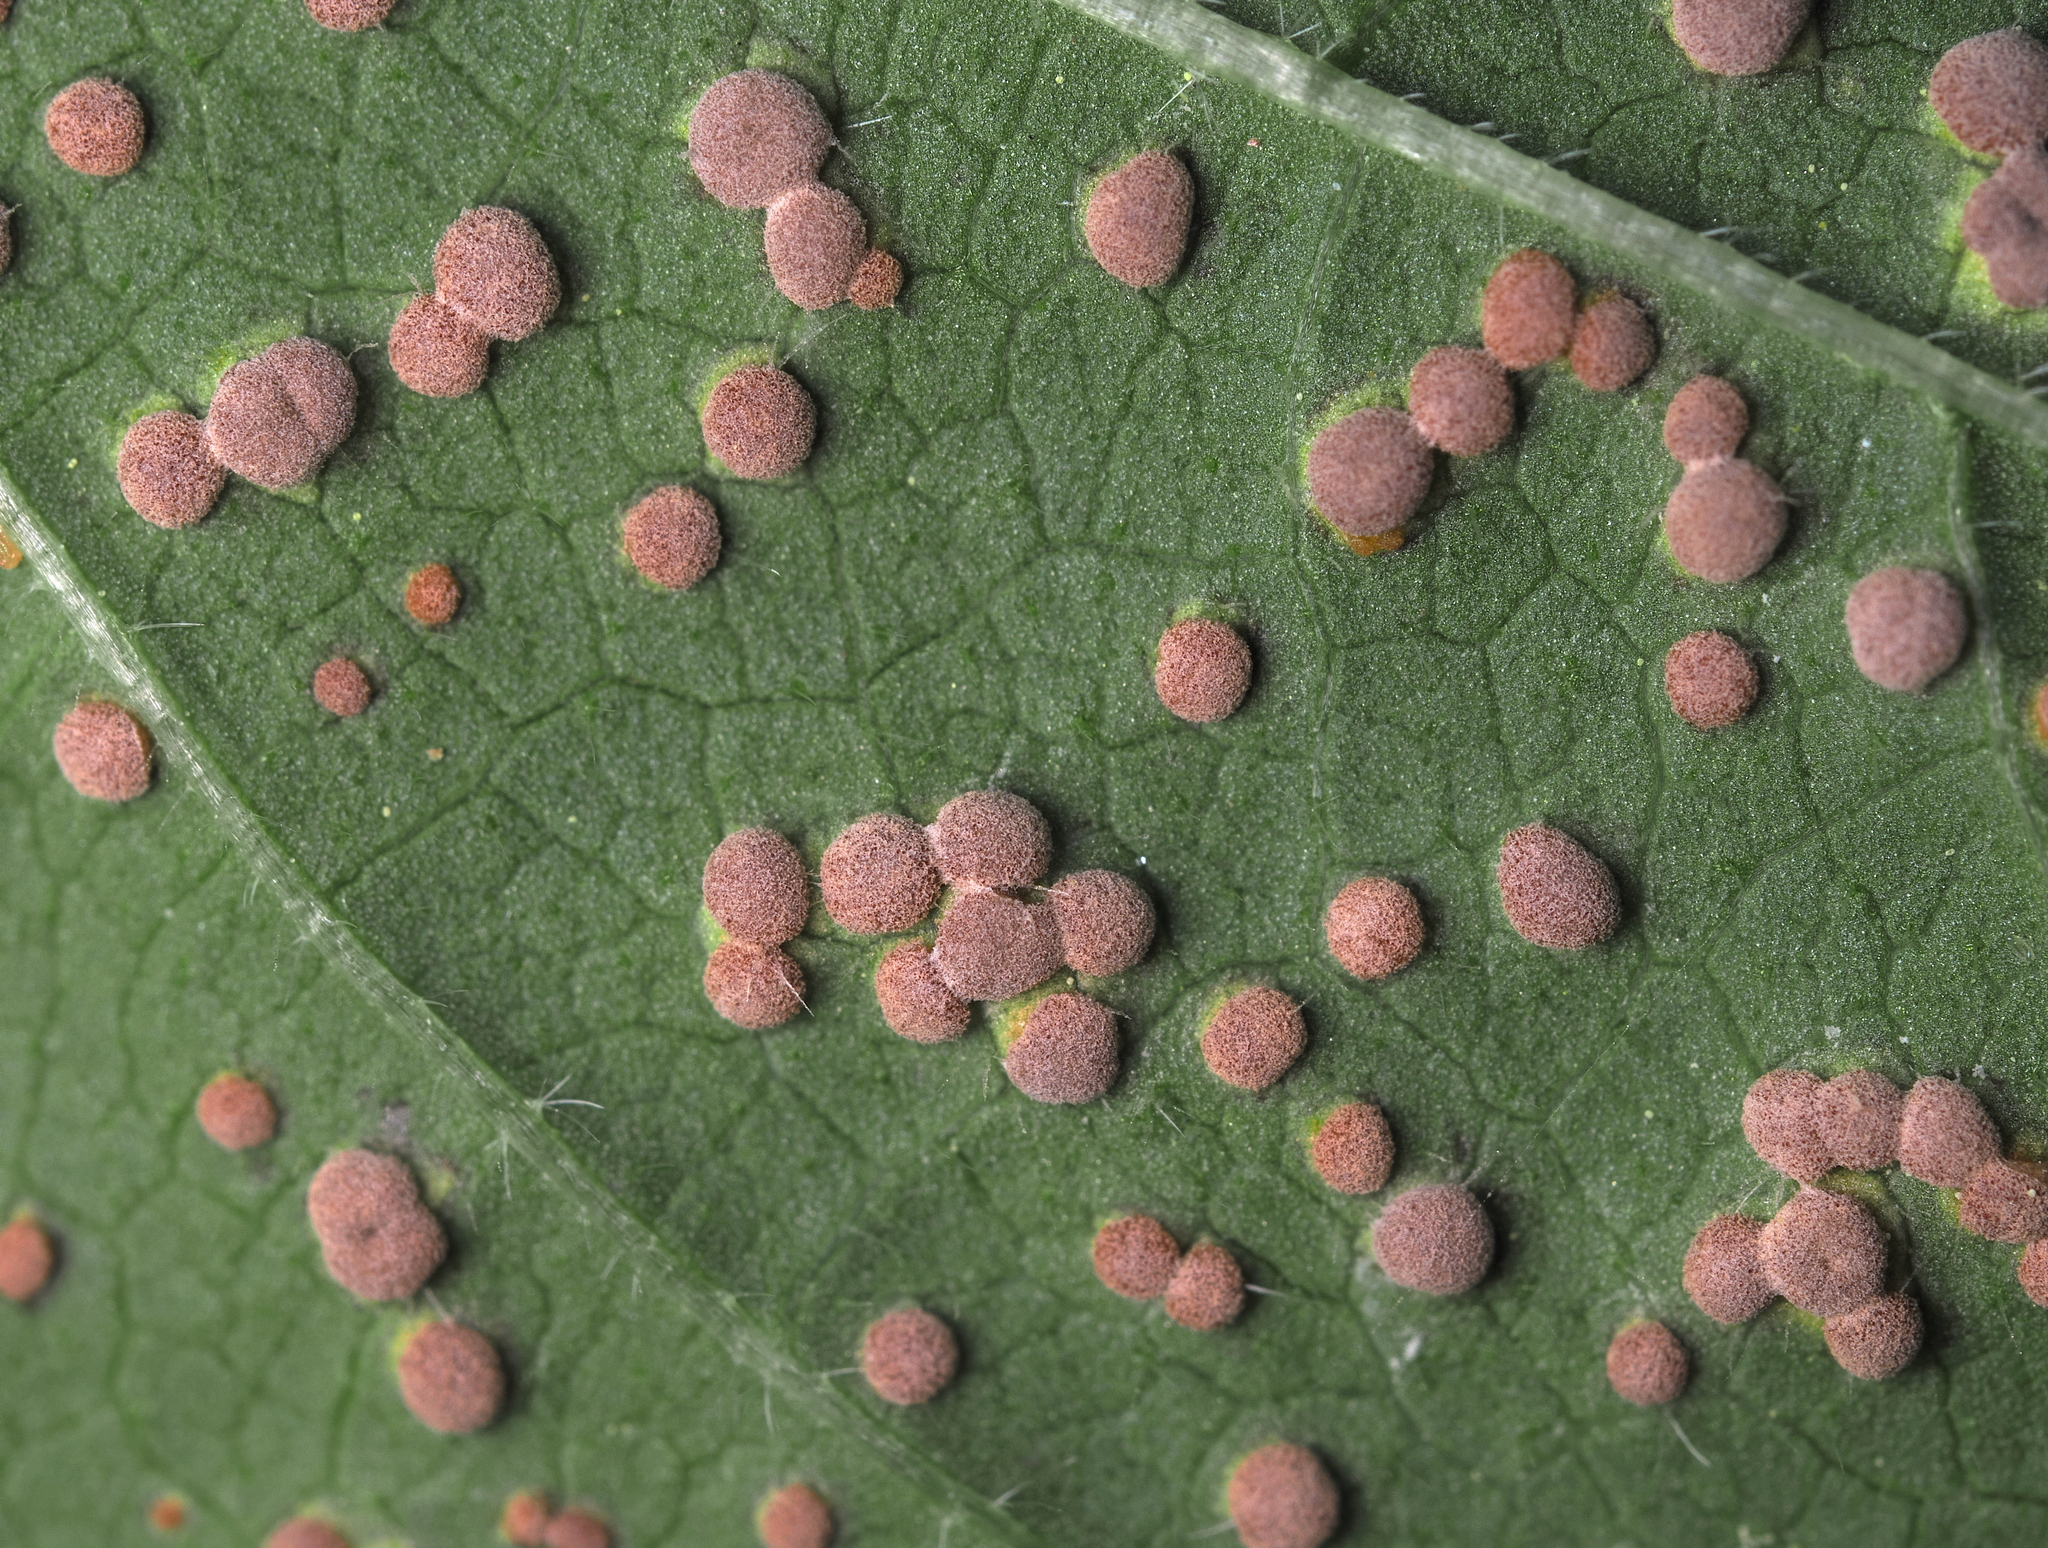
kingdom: Fungi
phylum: Basidiomycota
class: Pucciniomycetes
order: Pucciniales
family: Pucciniaceae
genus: Puccinia
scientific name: Puccinia malvacearum
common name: Hollyhock rust
